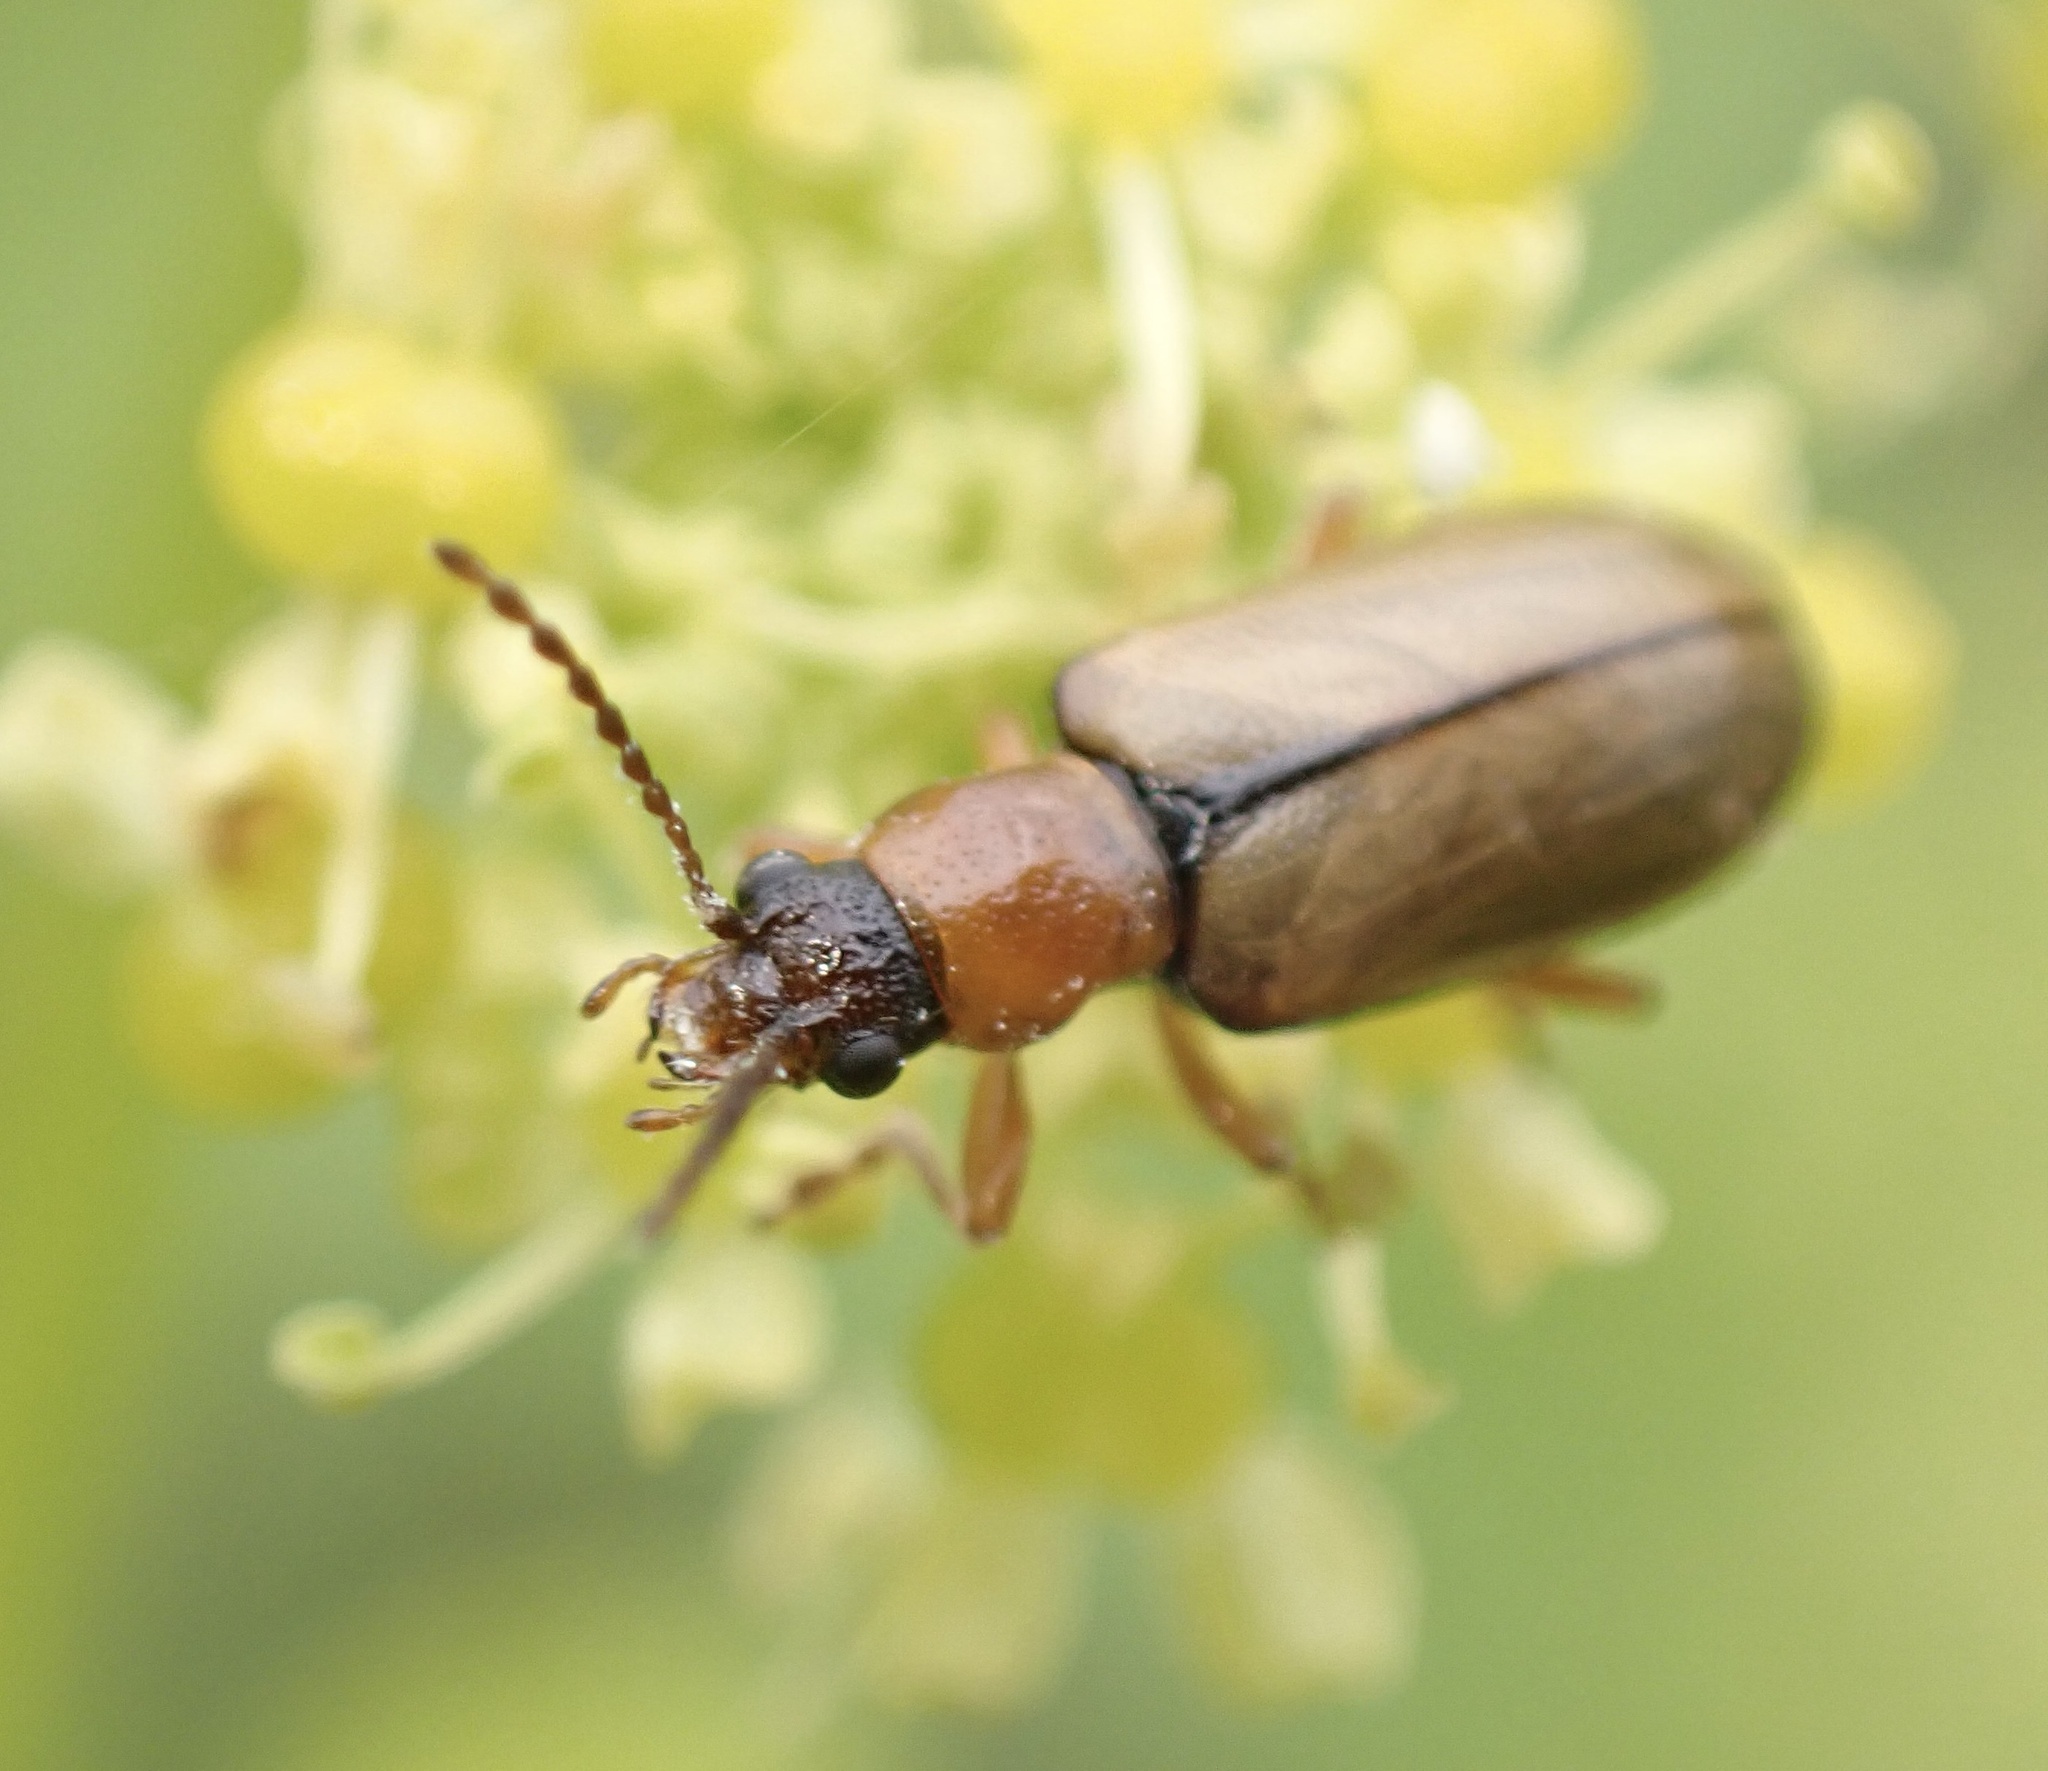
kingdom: Animalia
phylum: Arthropoda
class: Insecta
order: Coleoptera
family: Orsodacnidae
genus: Orsodacne
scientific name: Orsodacne cerasi
